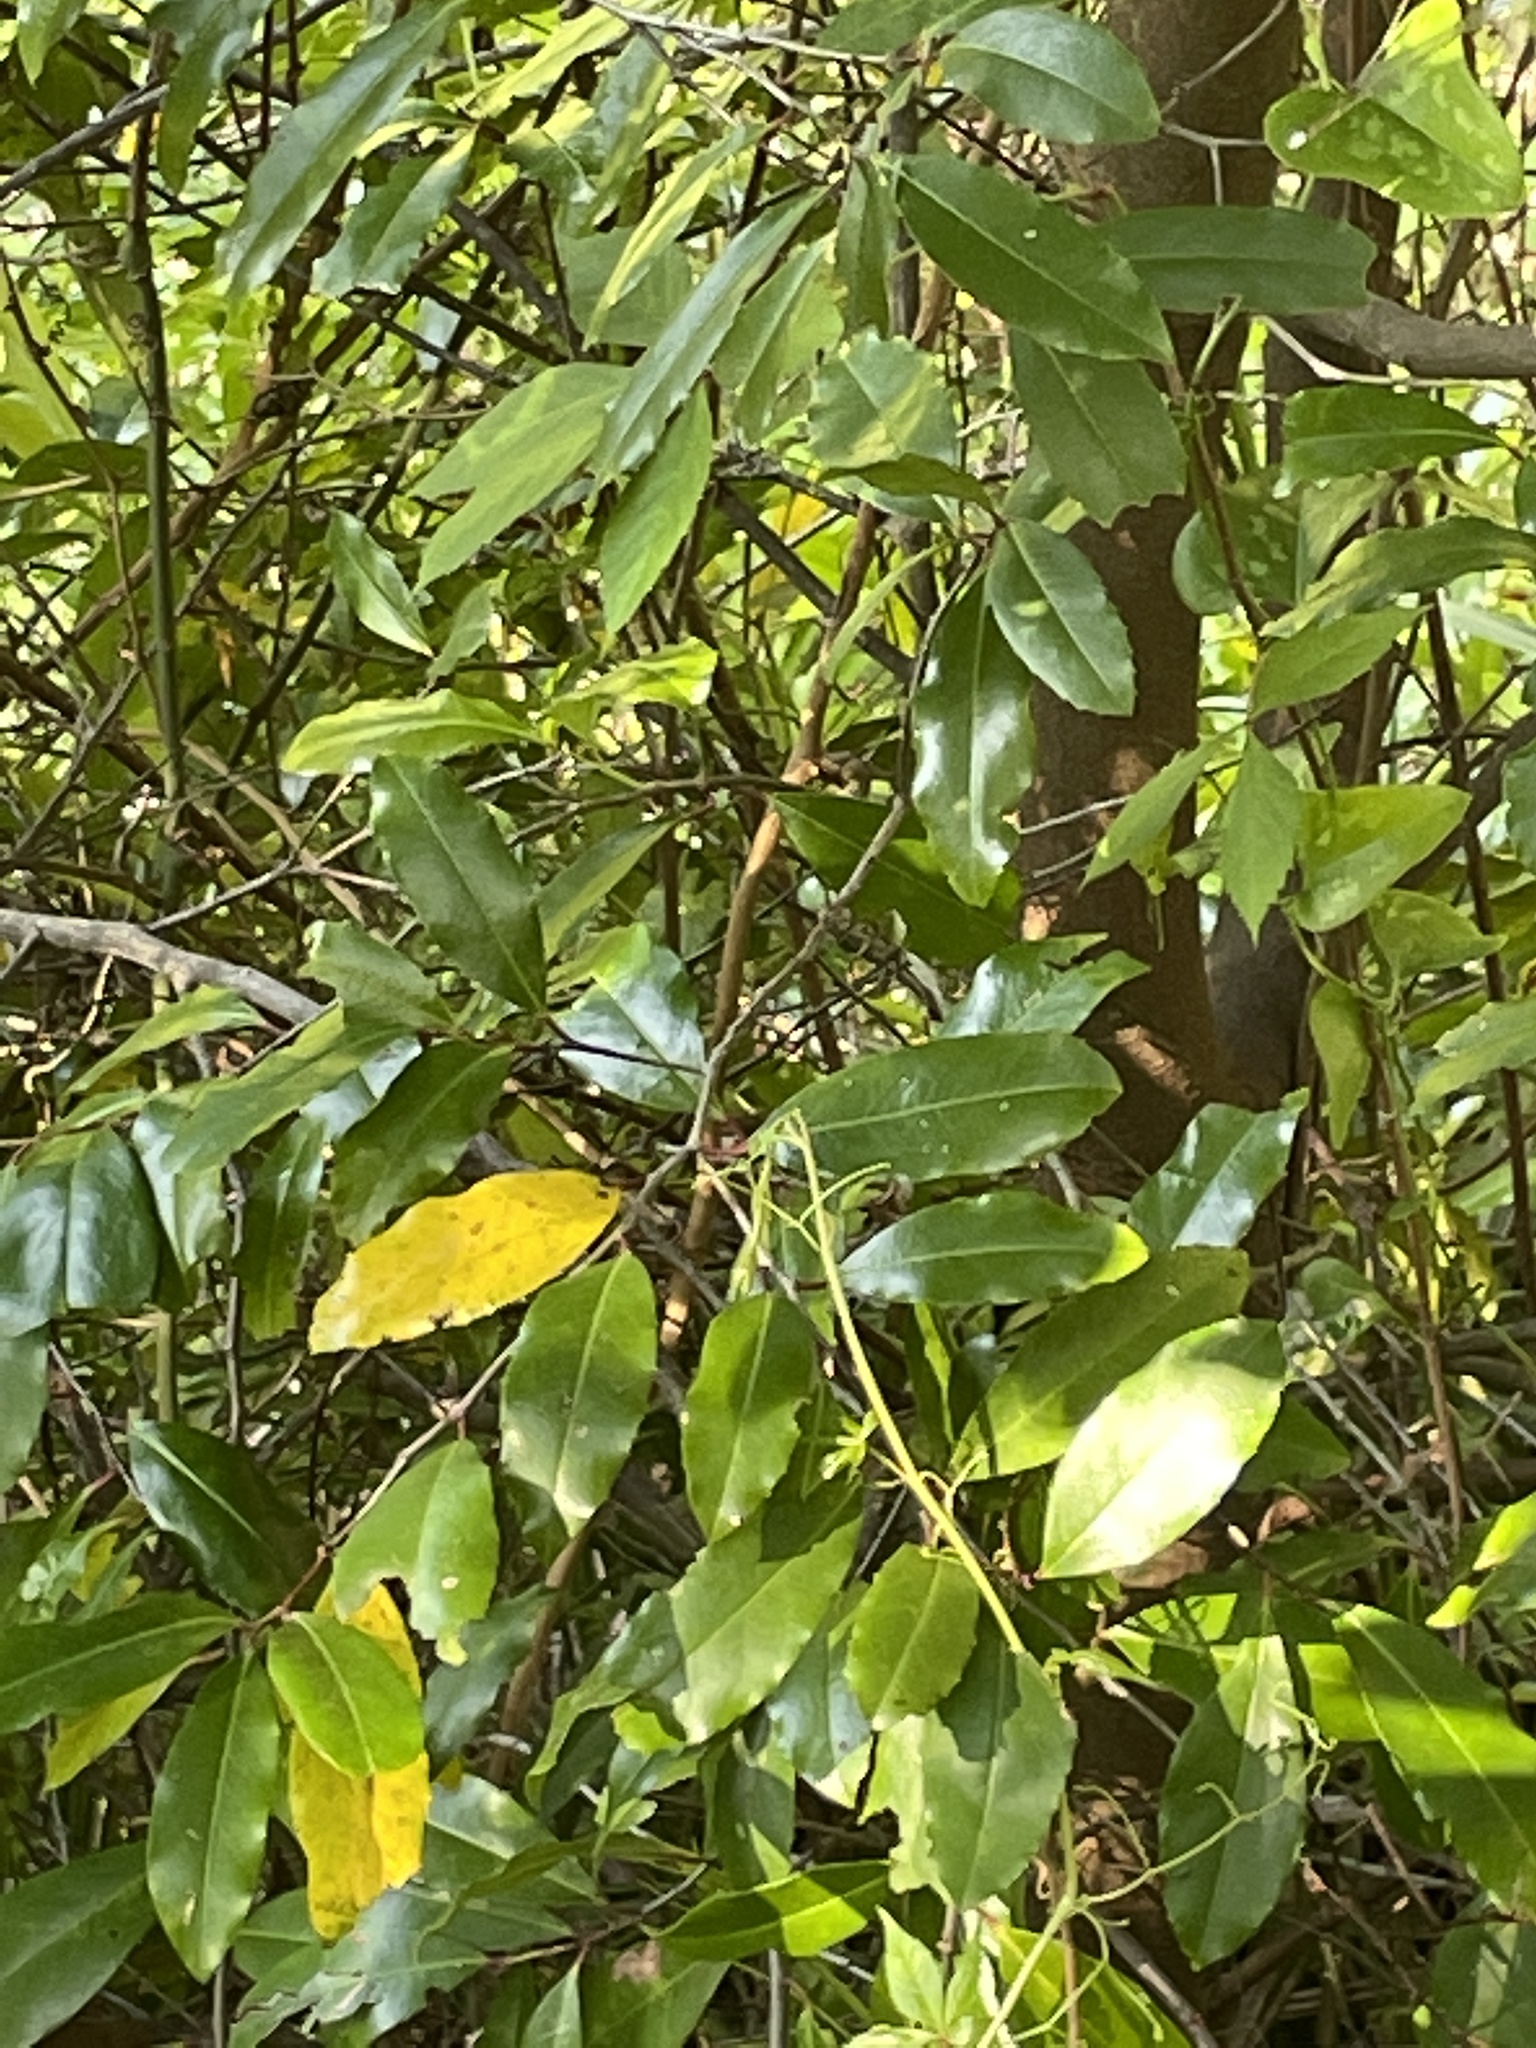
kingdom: Plantae
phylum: Tracheophyta
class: Magnoliopsida
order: Rosales
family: Rosaceae
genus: Prunus
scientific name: Prunus caroliniana
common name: Carolina laurel cherry
